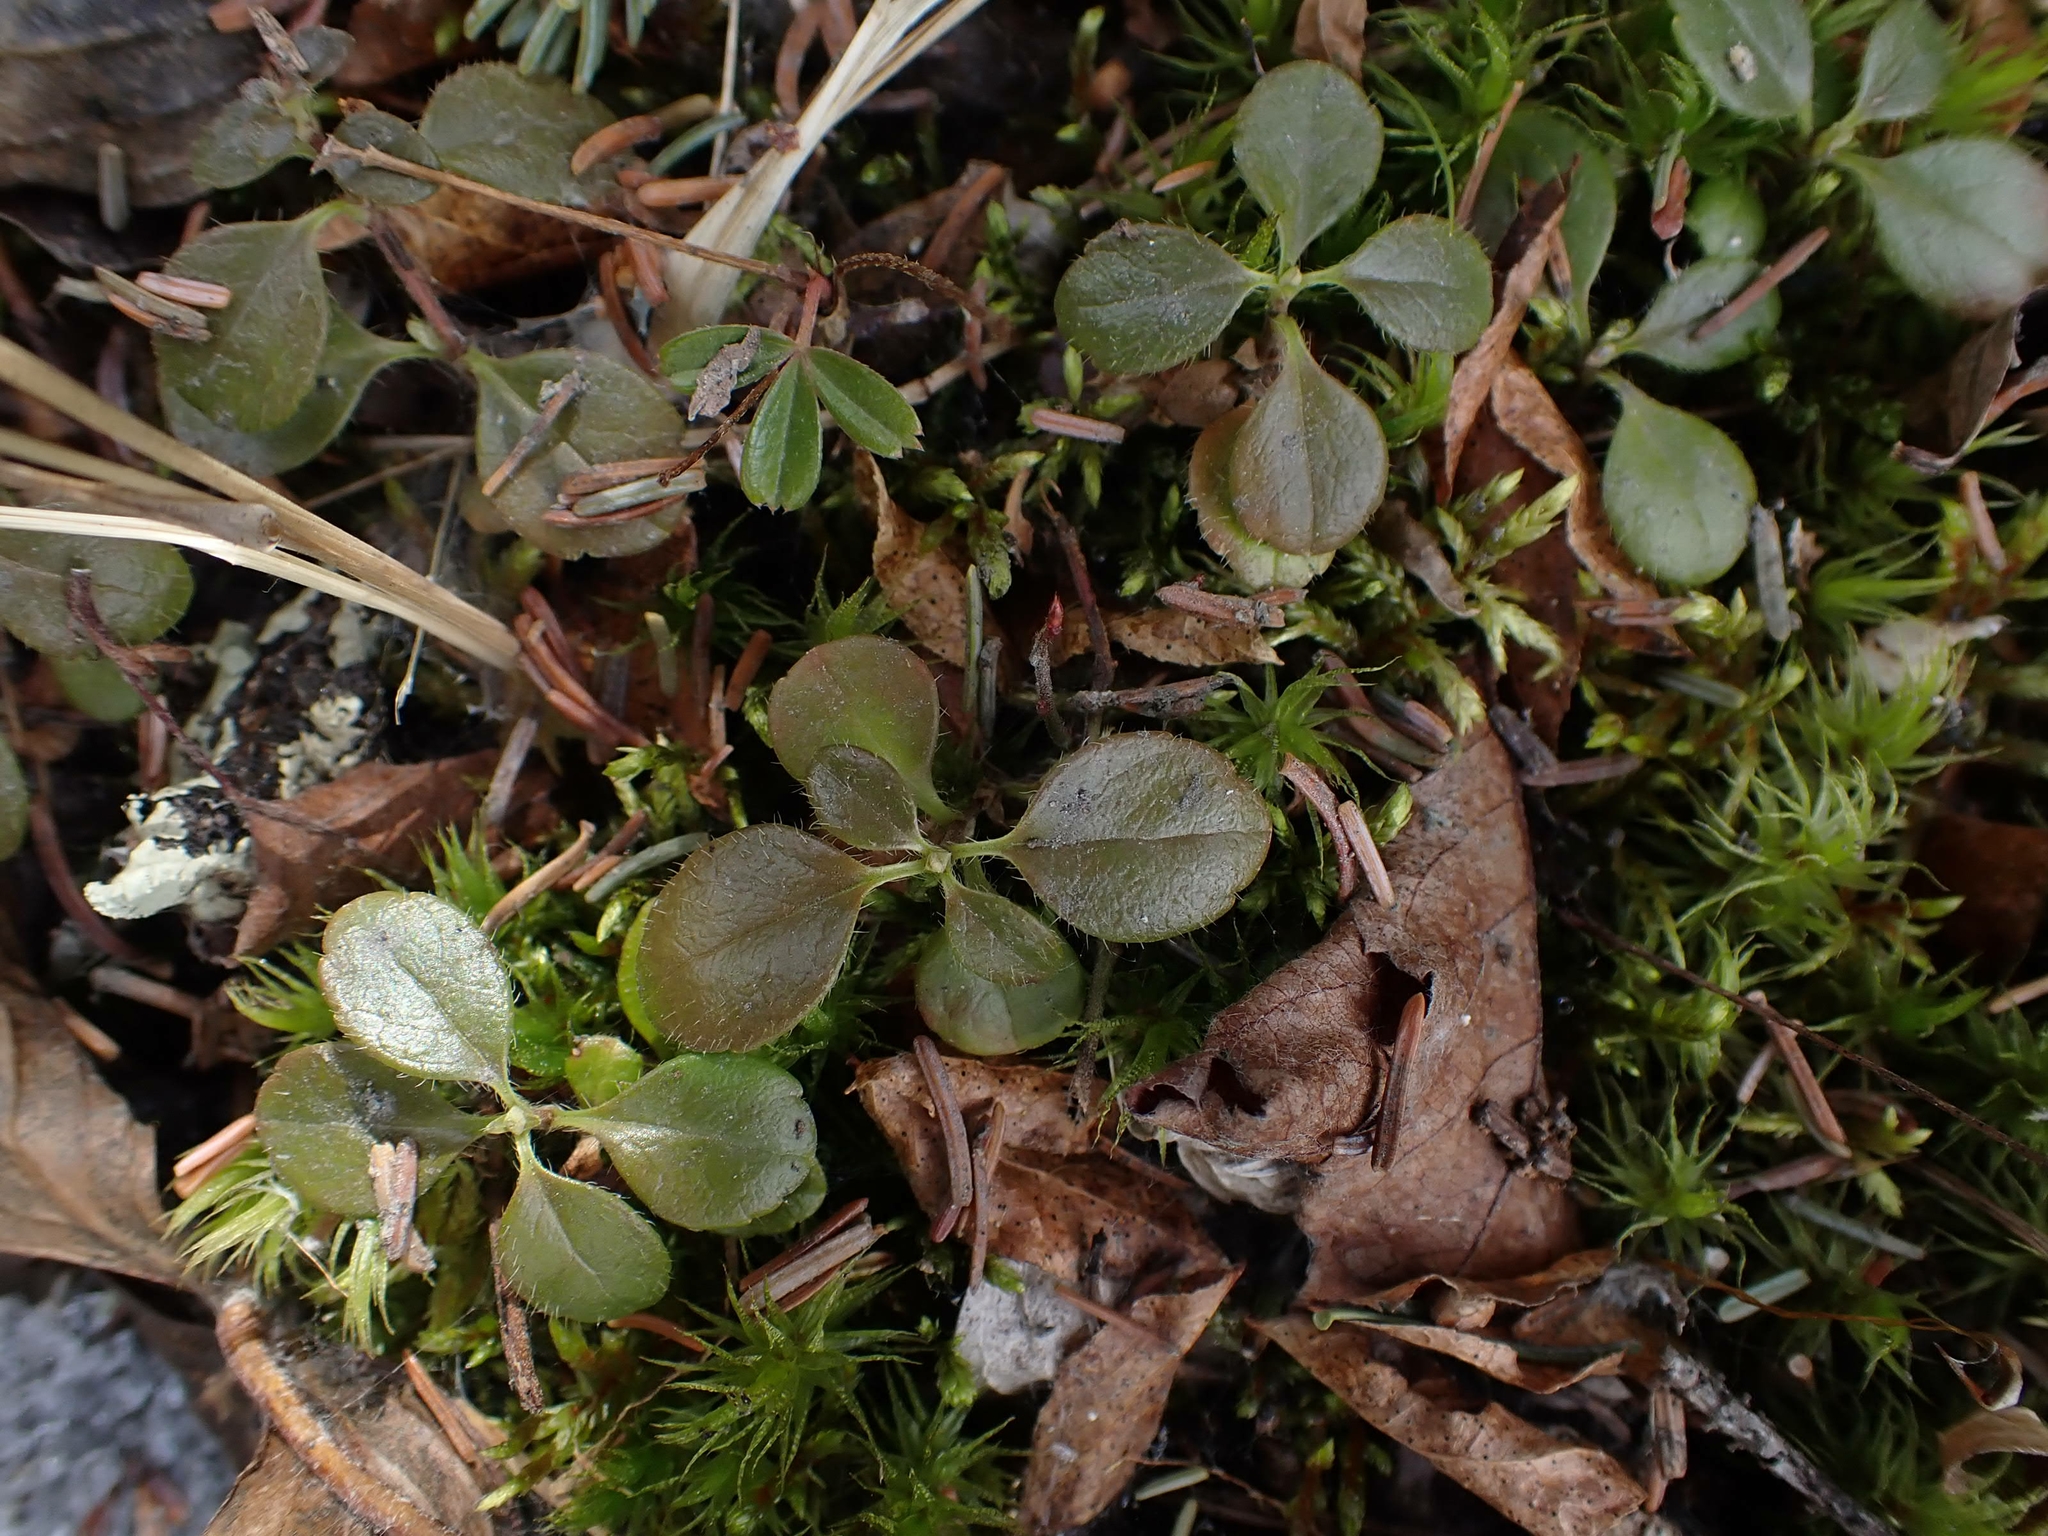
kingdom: Plantae
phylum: Tracheophyta
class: Magnoliopsida
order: Dipsacales
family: Caprifoliaceae
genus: Linnaea
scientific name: Linnaea borealis
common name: Twinflower
